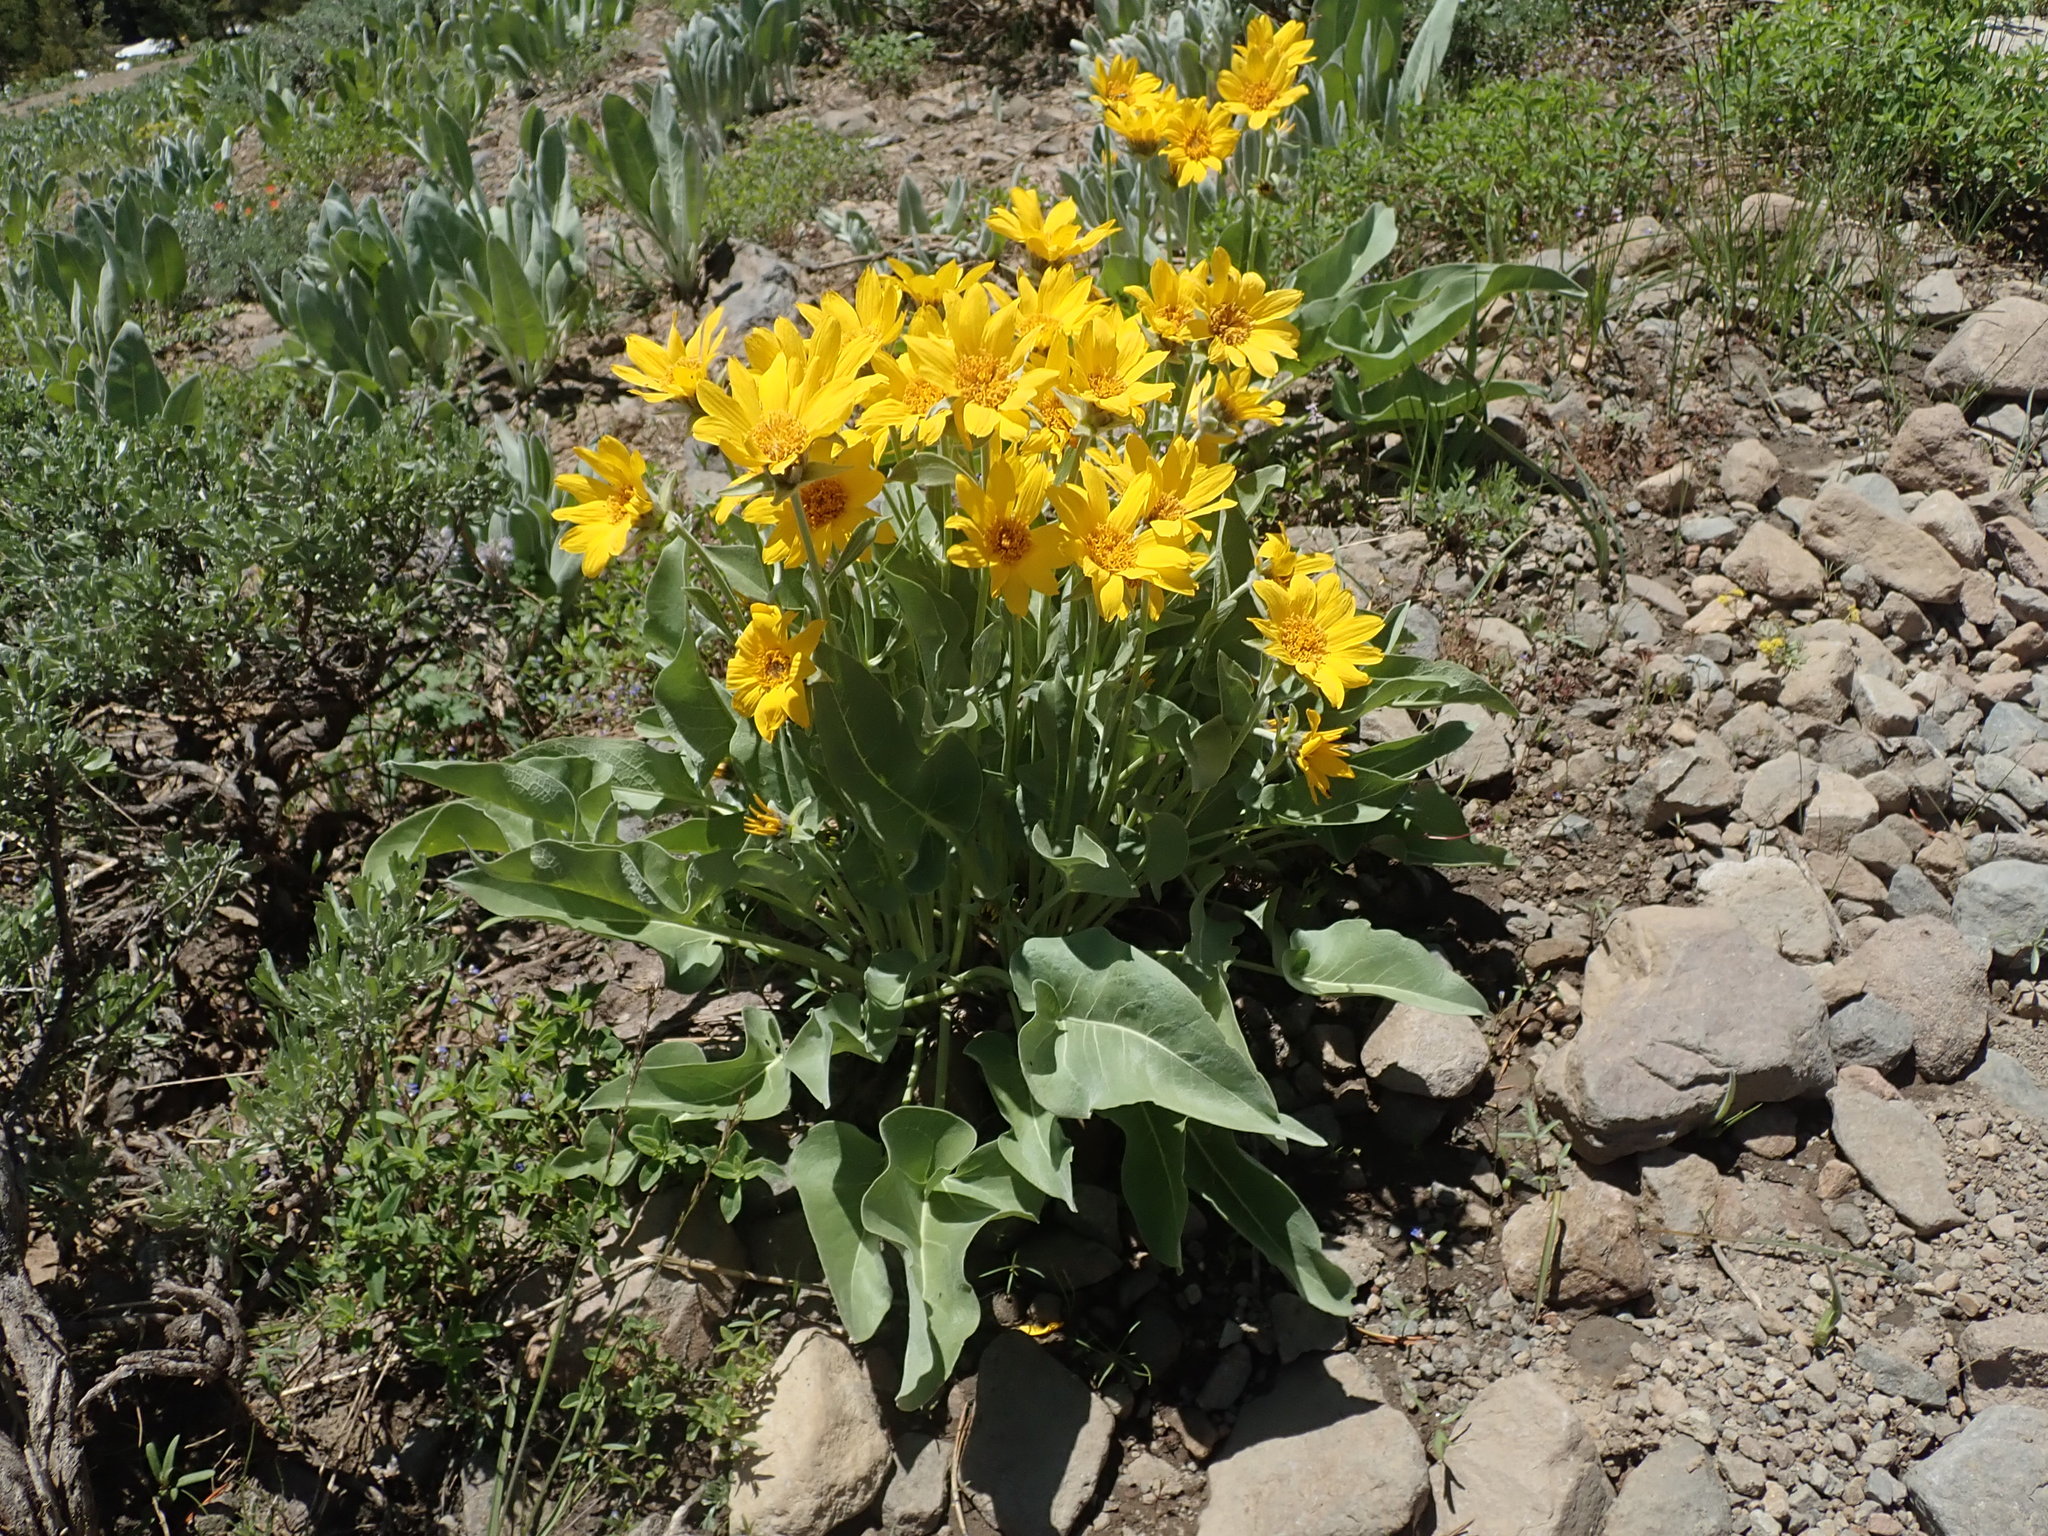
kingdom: Plantae
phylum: Tracheophyta
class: Magnoliopsida
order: Asterales
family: Asteraceae
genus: Wyethia
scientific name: Wyethia sagittata
